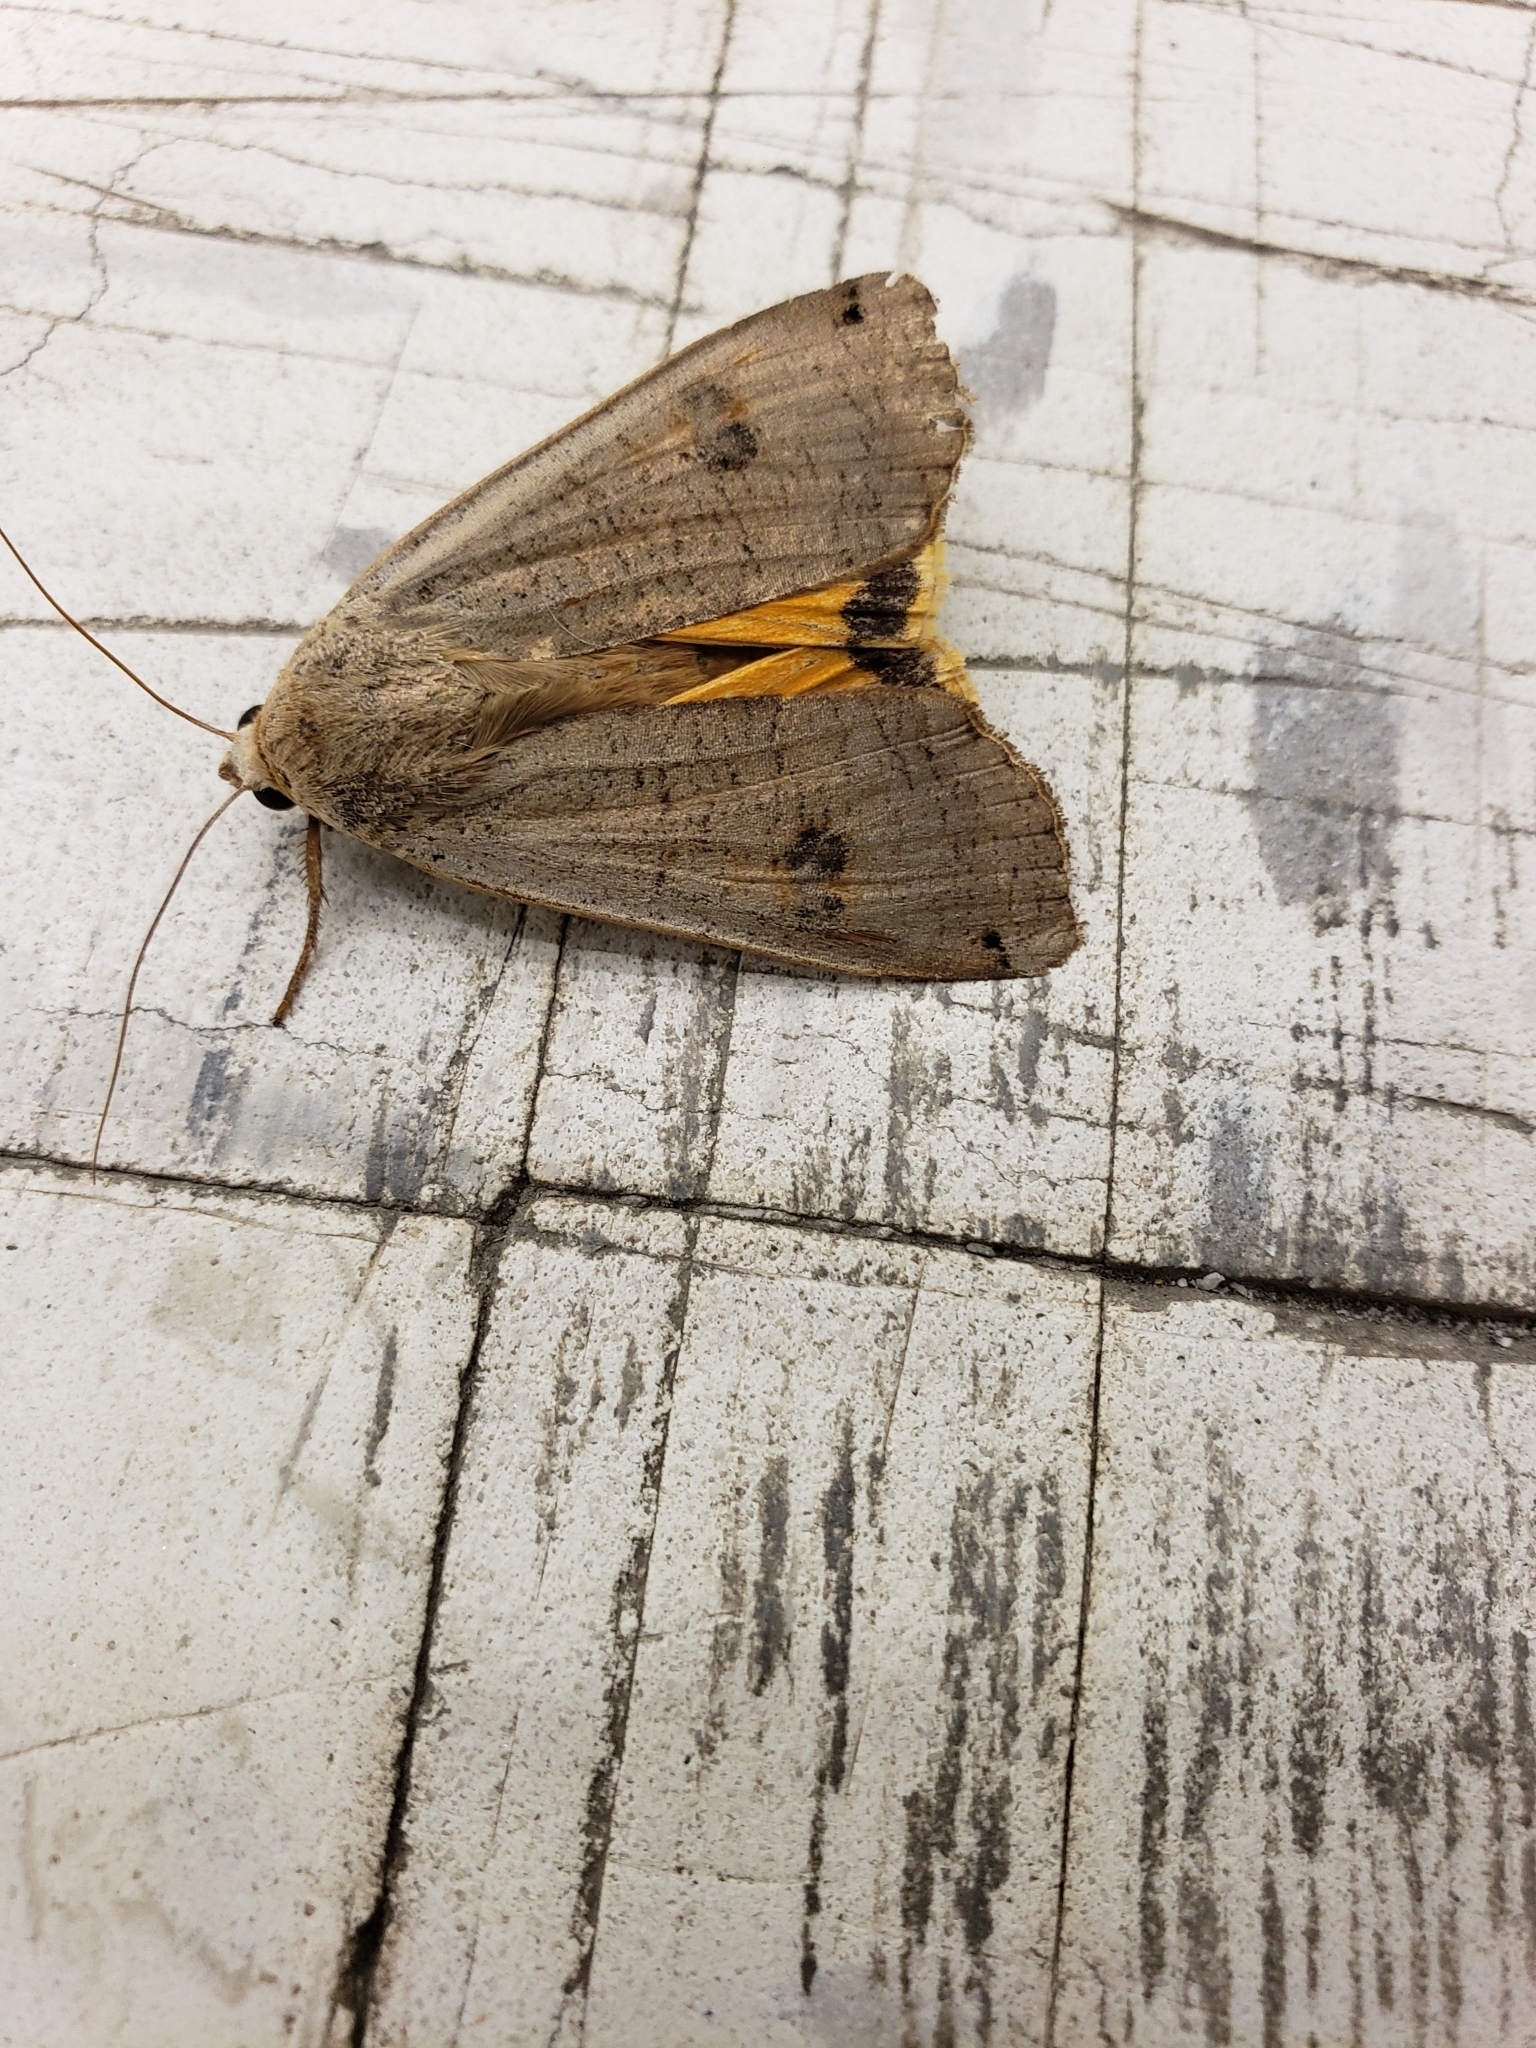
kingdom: Animalia
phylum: Arthropoda
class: Insecta
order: Lepidoptera
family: Noctuidae
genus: Noctua
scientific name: Noctua pronuba
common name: Large yellow underwing
